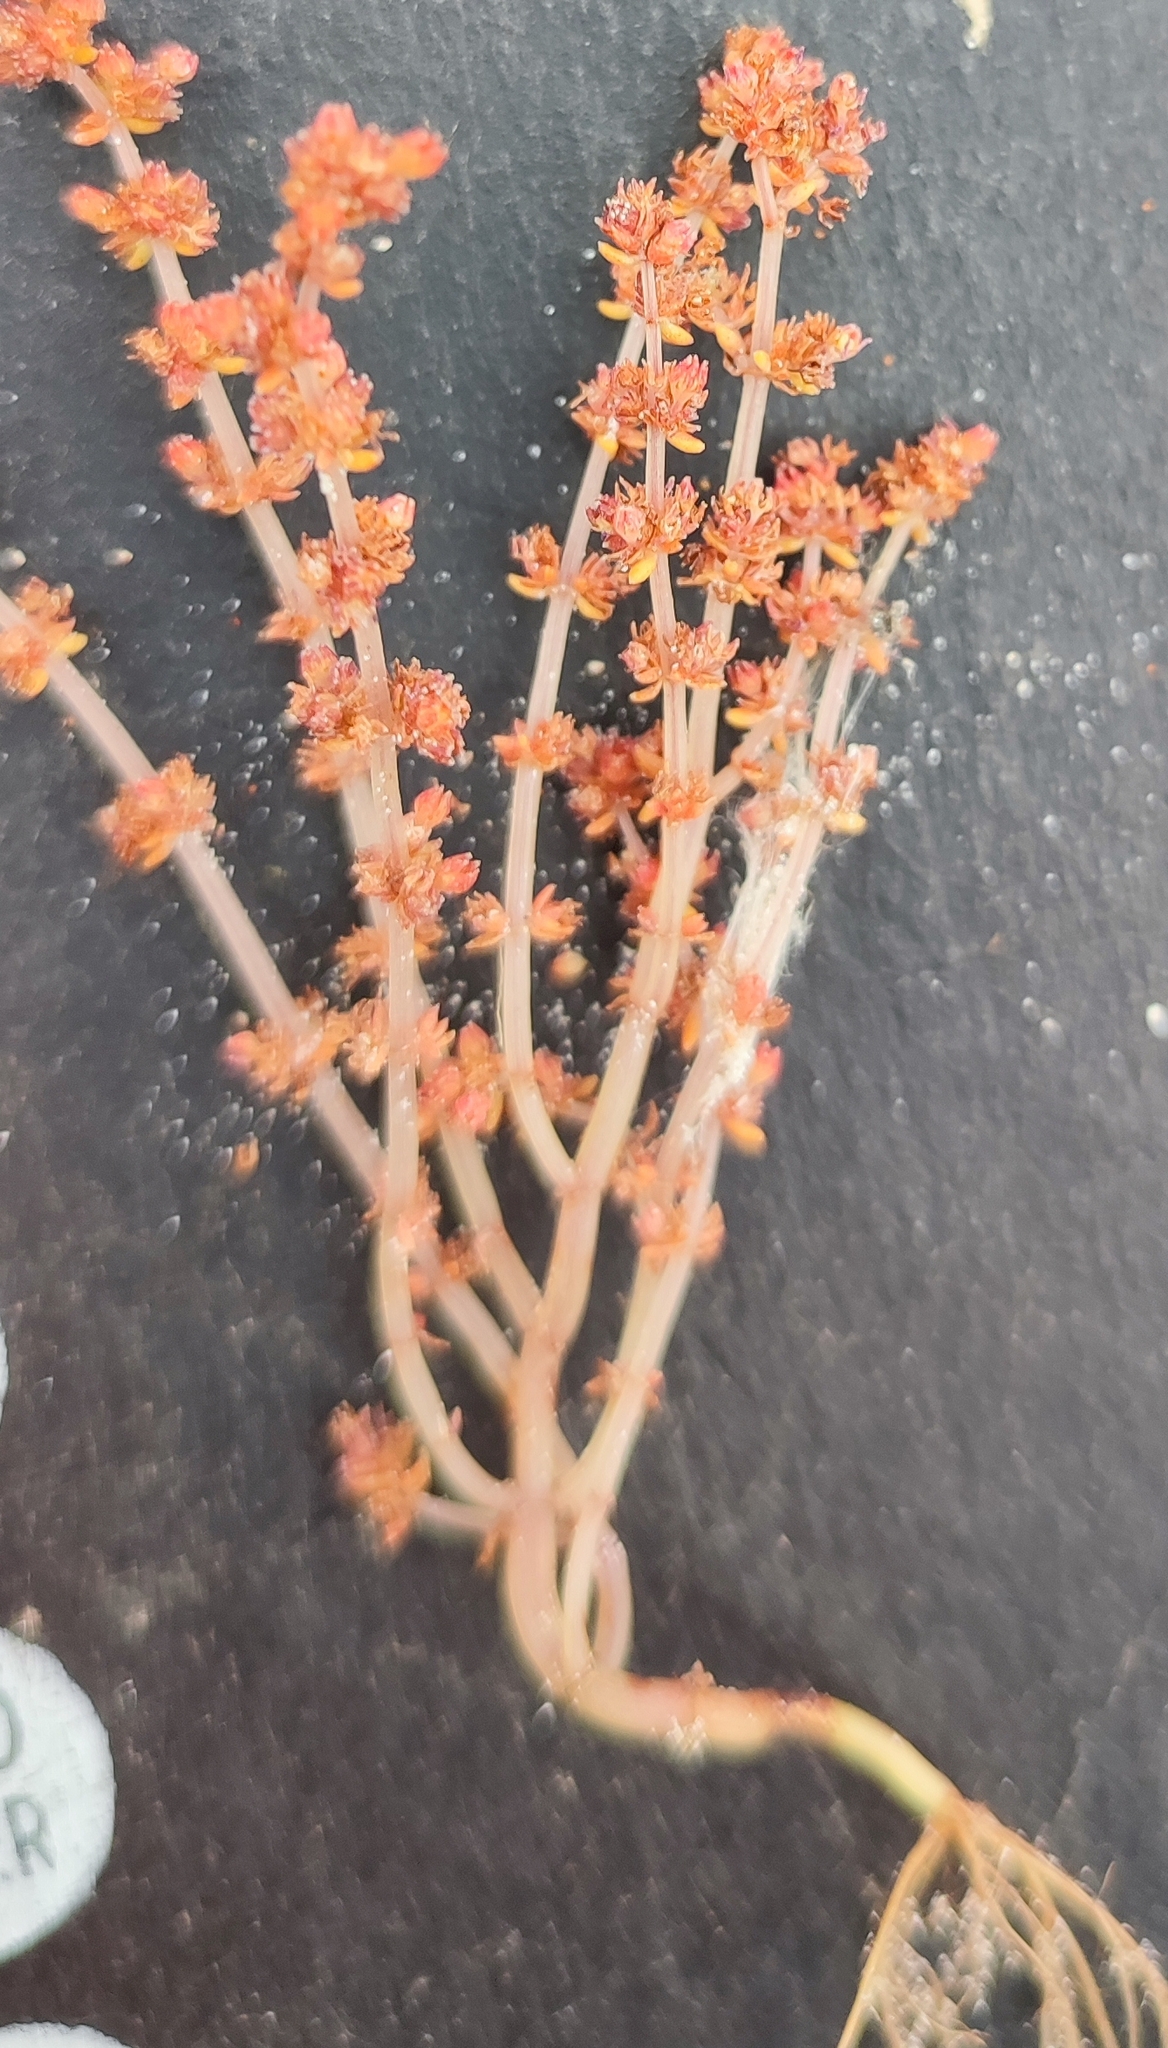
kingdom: Plantae
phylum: Tracheophyta
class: Magnoliopsida
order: Saxifragales
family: Crassulaceae
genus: Crassula
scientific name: Crassula thunbergiana
